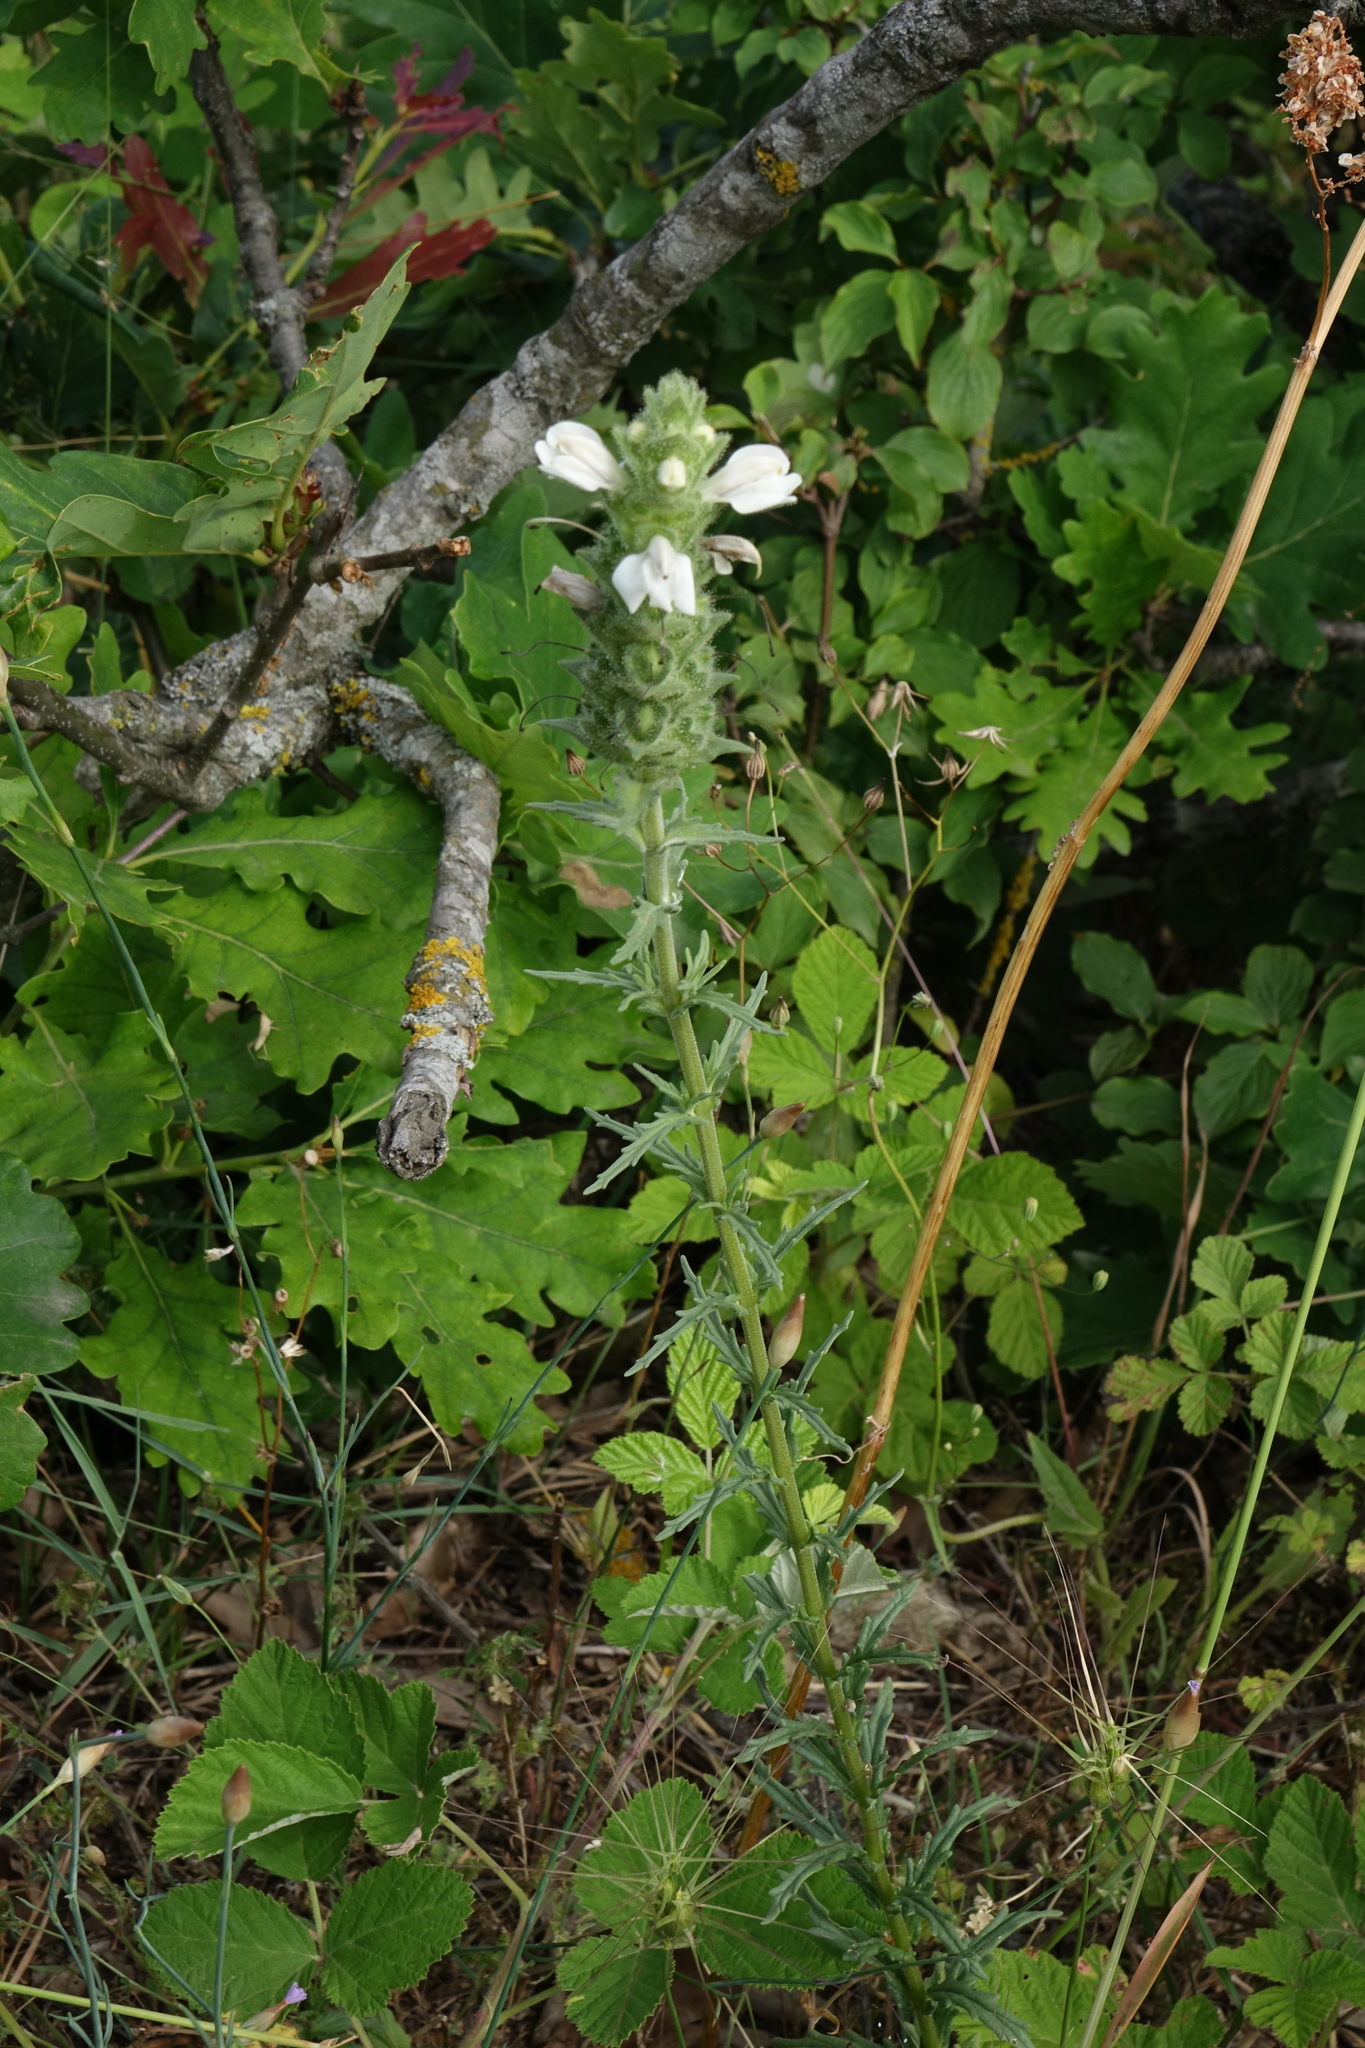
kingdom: Plantae
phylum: Tracheophyta
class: Magnoliopsida
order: Lamiales
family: Orobanchaceae
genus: Bellardia
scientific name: Bellardia trixago
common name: Mediterranean lineseed
